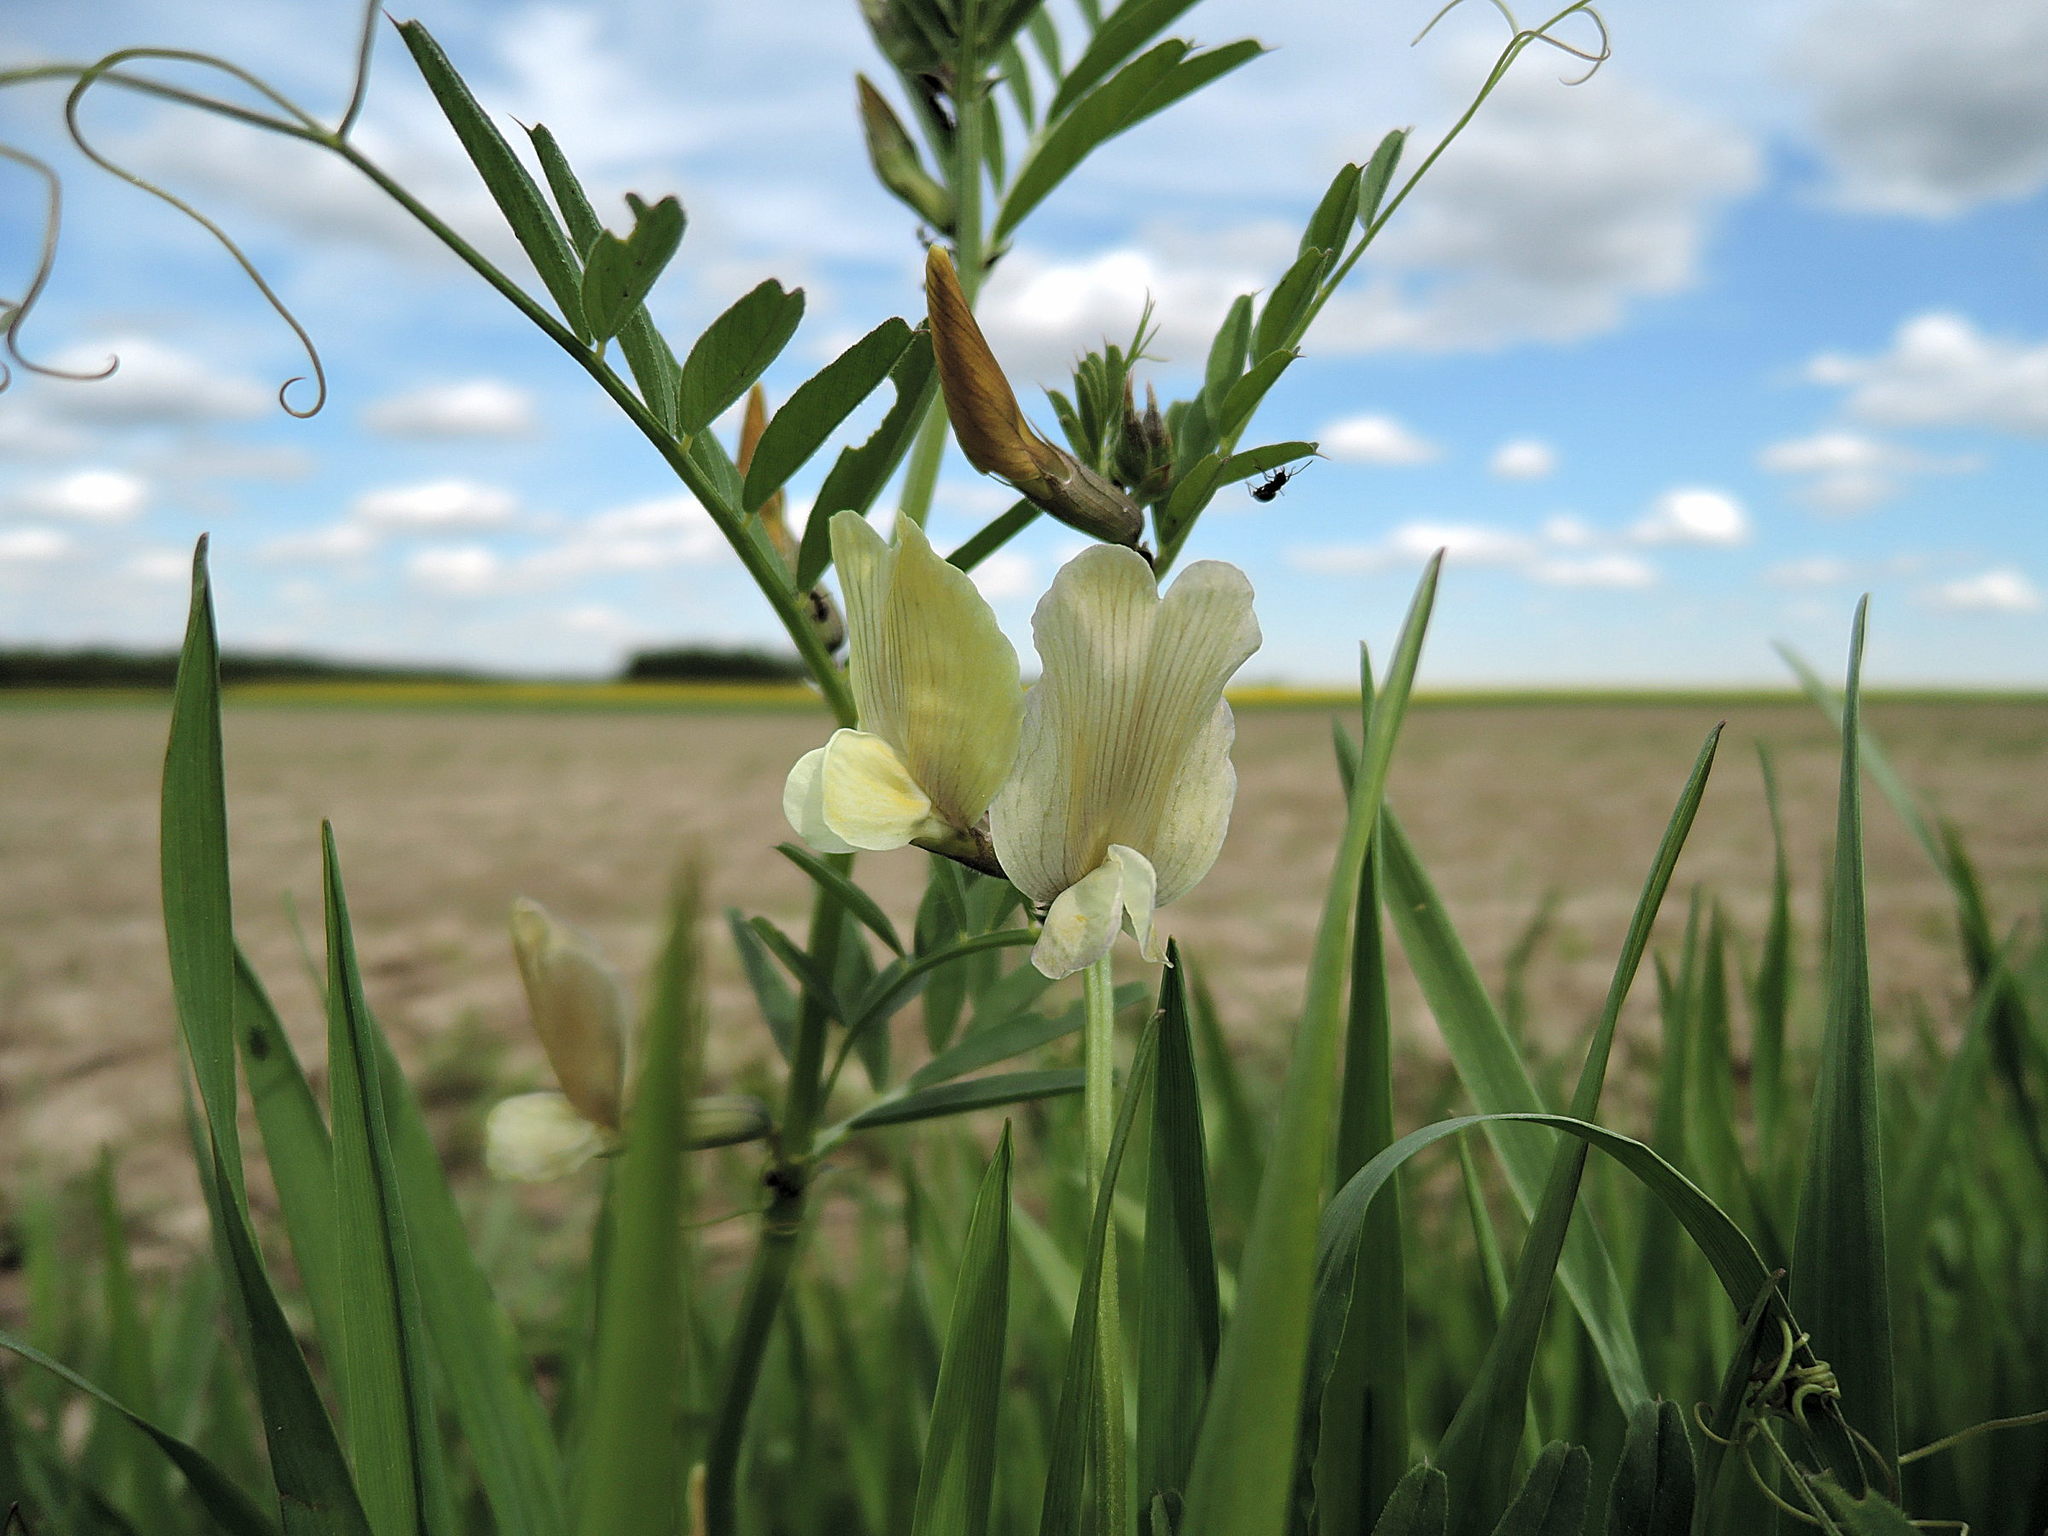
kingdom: Plantae
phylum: Tracheophyta
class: Magnoliopsida
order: Fabales
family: Fabaceae
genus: Vicia
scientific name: Vicia grandiflora
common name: Large yellow vetch
